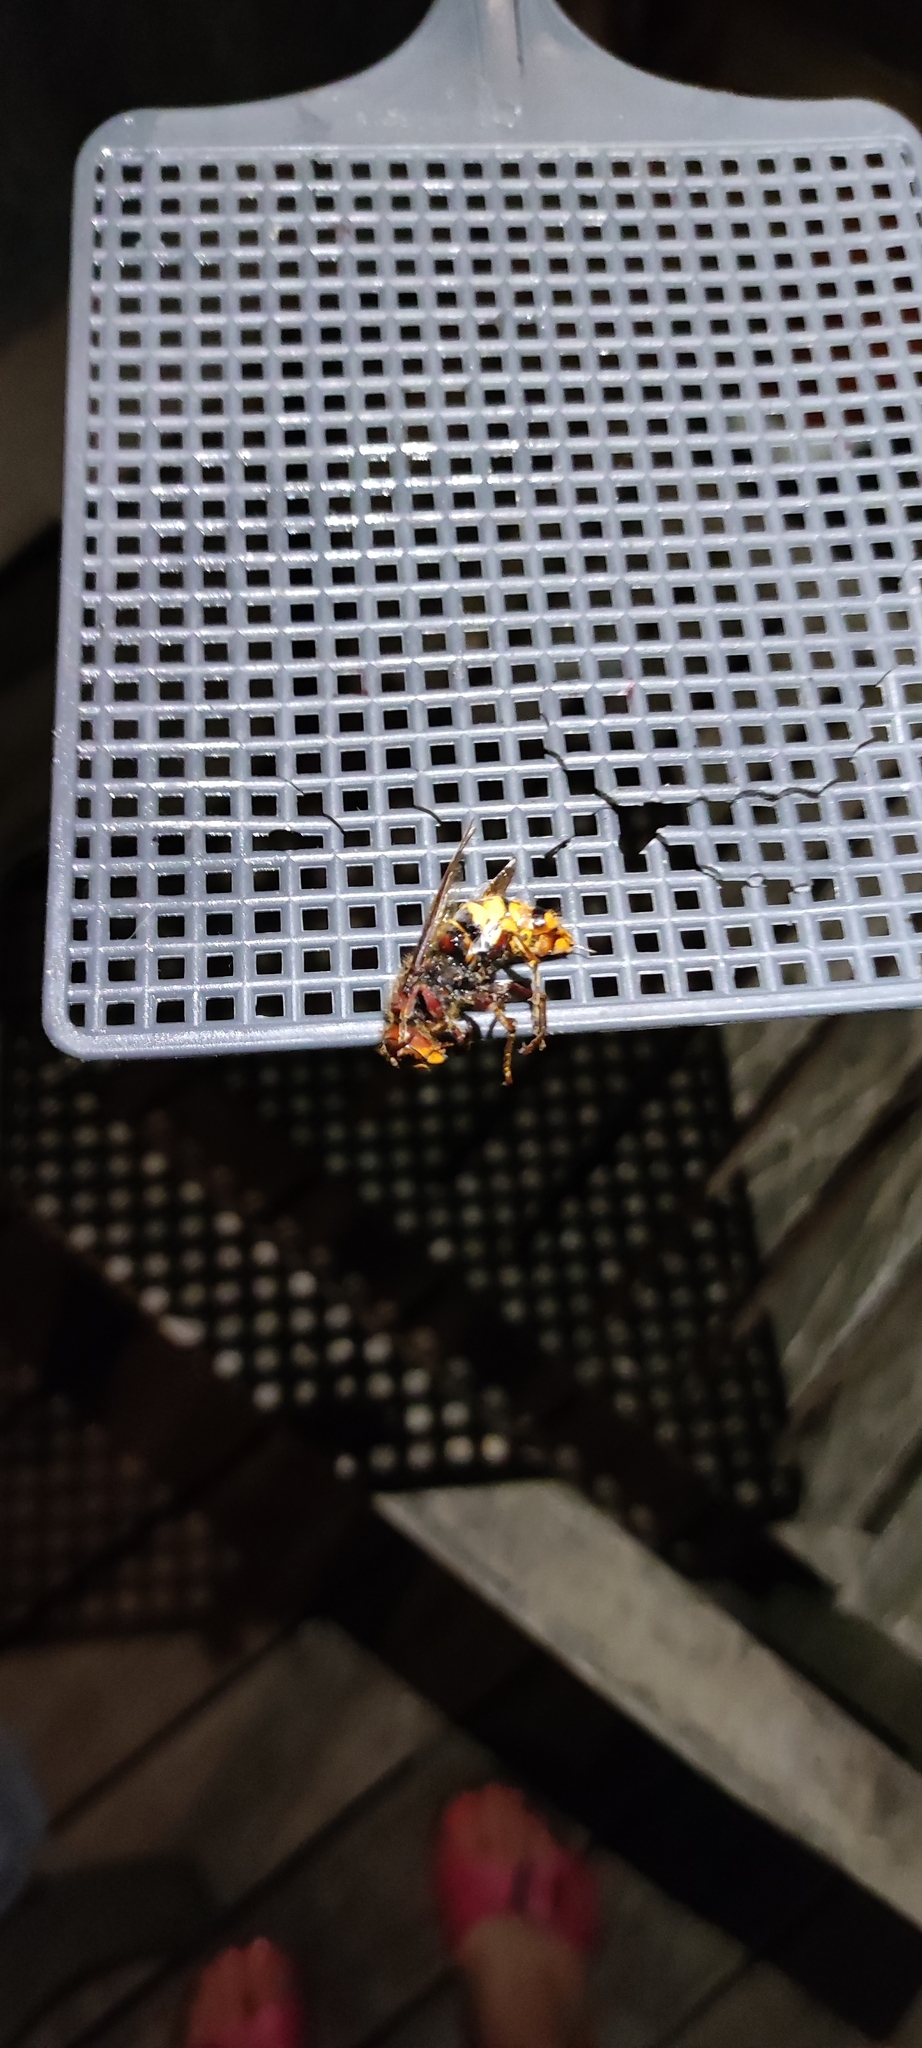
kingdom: Animalia
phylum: Arthropoda
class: Insecta
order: Hymenoptera
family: Vespidae
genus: Vespa
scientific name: Vespa crabro
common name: Hornet
